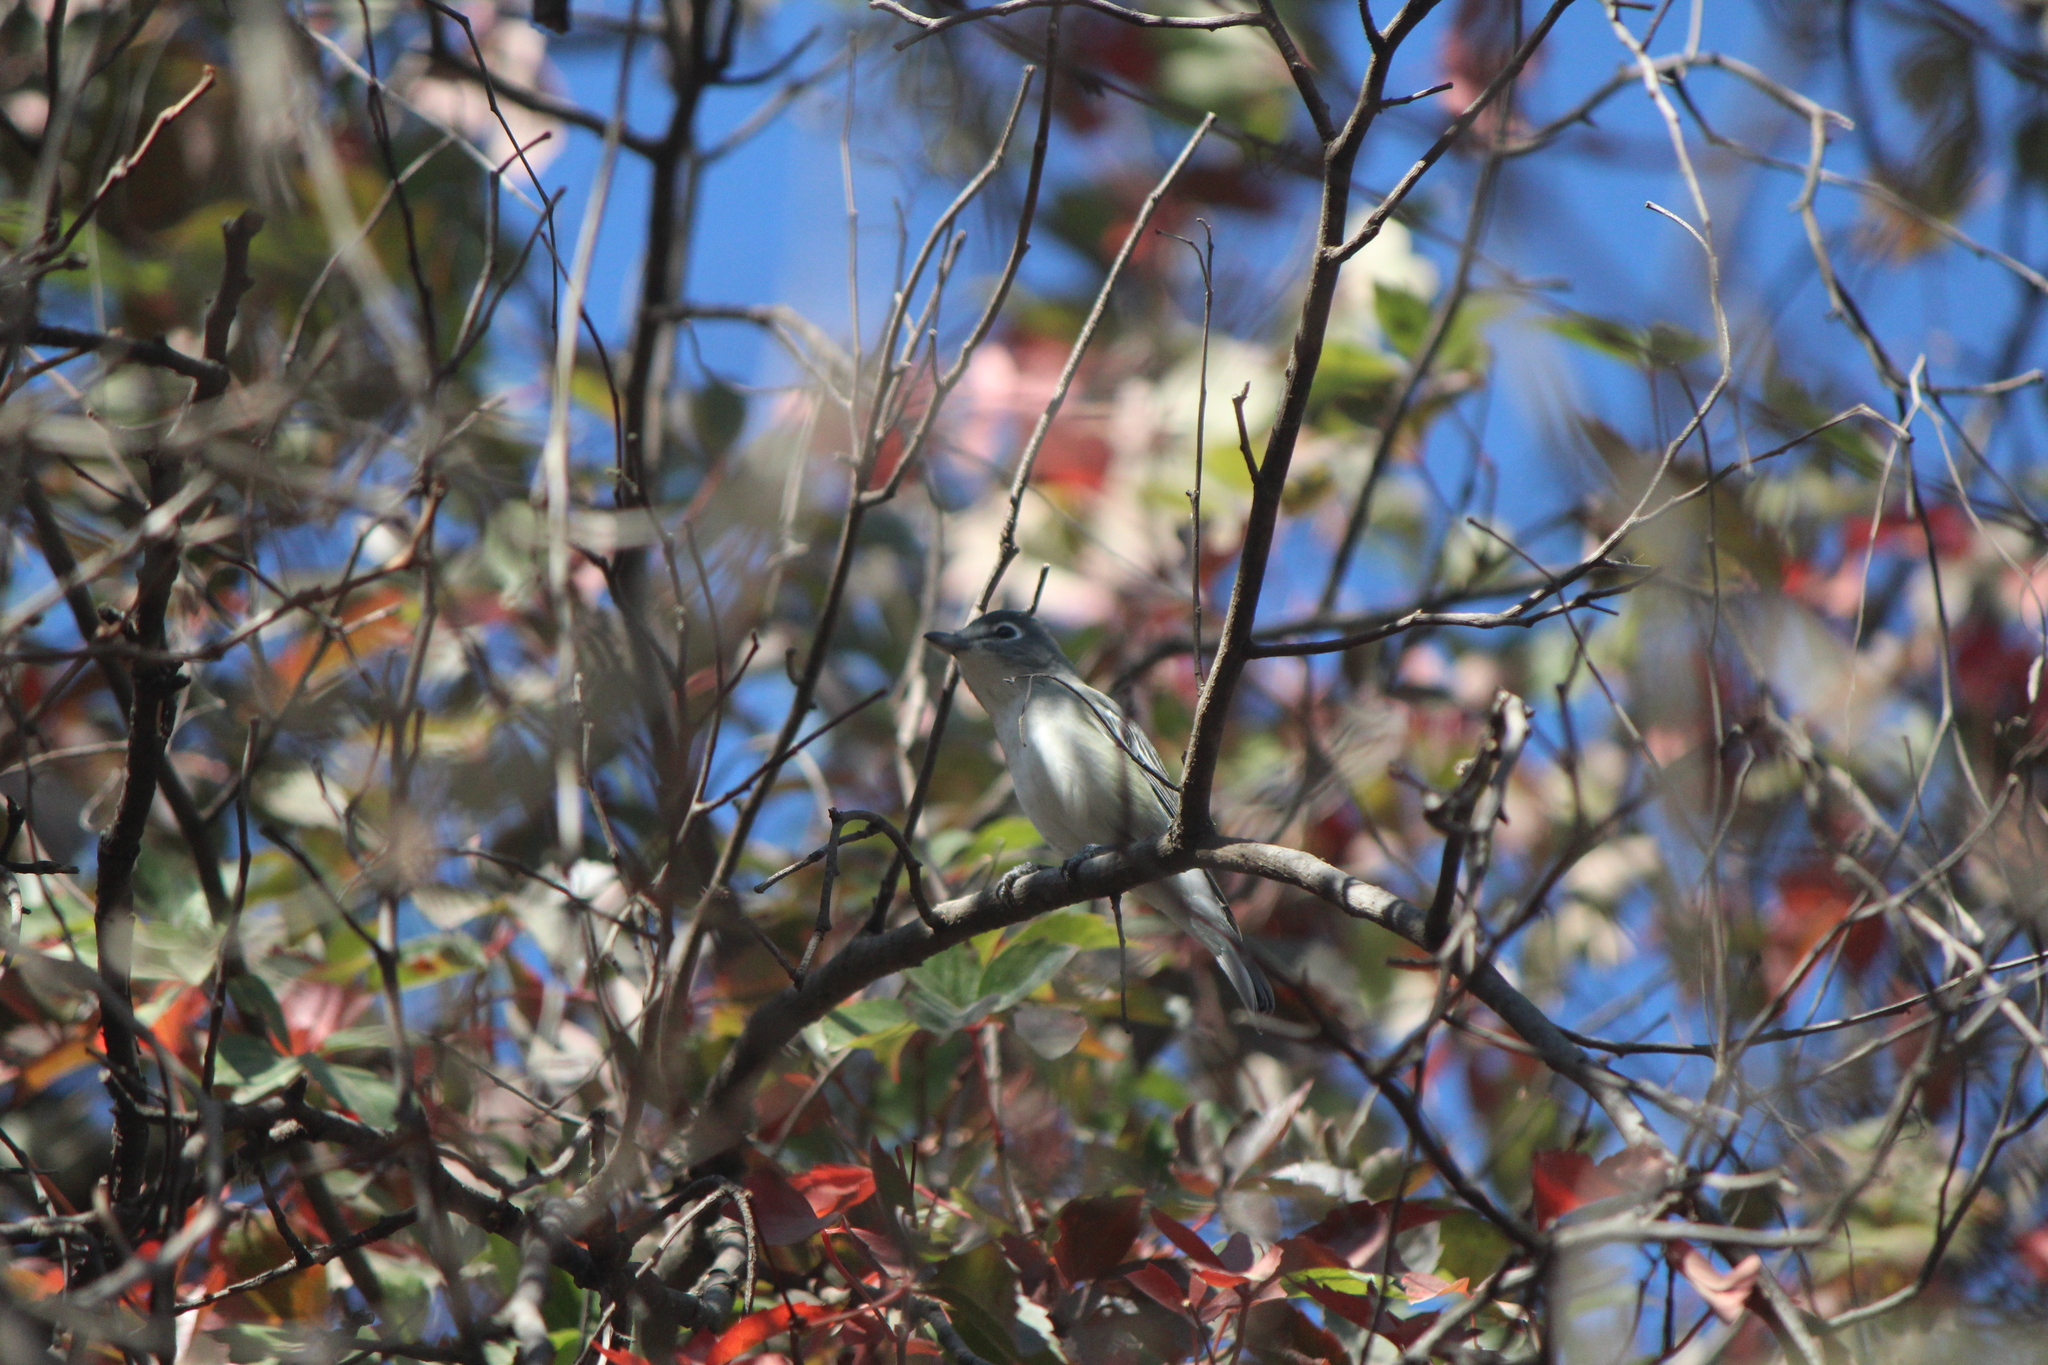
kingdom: Animalia
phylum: Chordata
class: Aves
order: Passeriformes
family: Vireonidae
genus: Vireo
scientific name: Vireo plumbeus
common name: Plumbeous vireo
